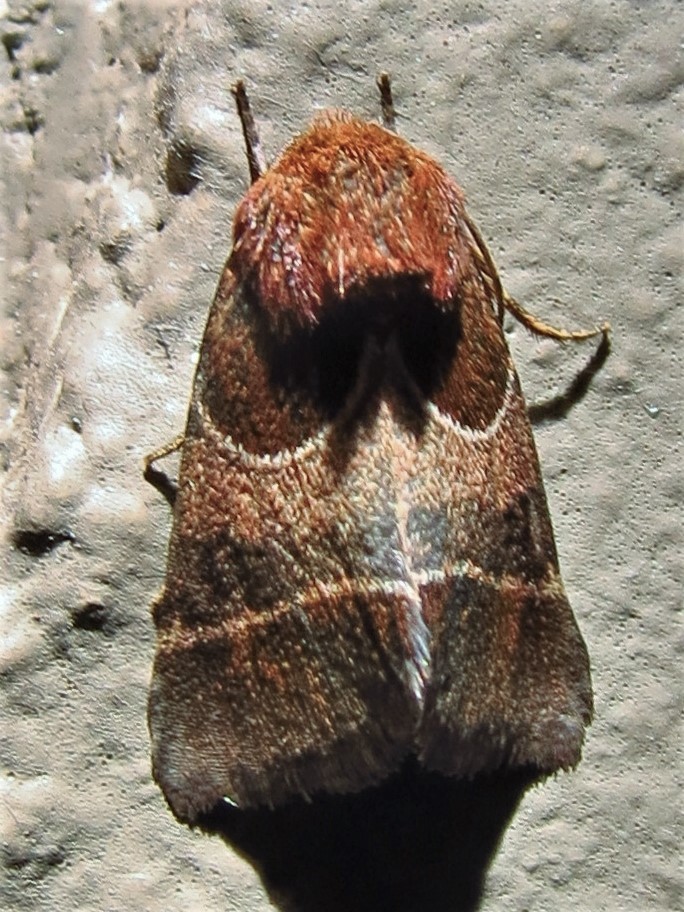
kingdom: Animalia
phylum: Arthropoda
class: Insecta
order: Lepidoptera
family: Noctuidae
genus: Schinia
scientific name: Schinia arcigera
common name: Arcigera flower moth
